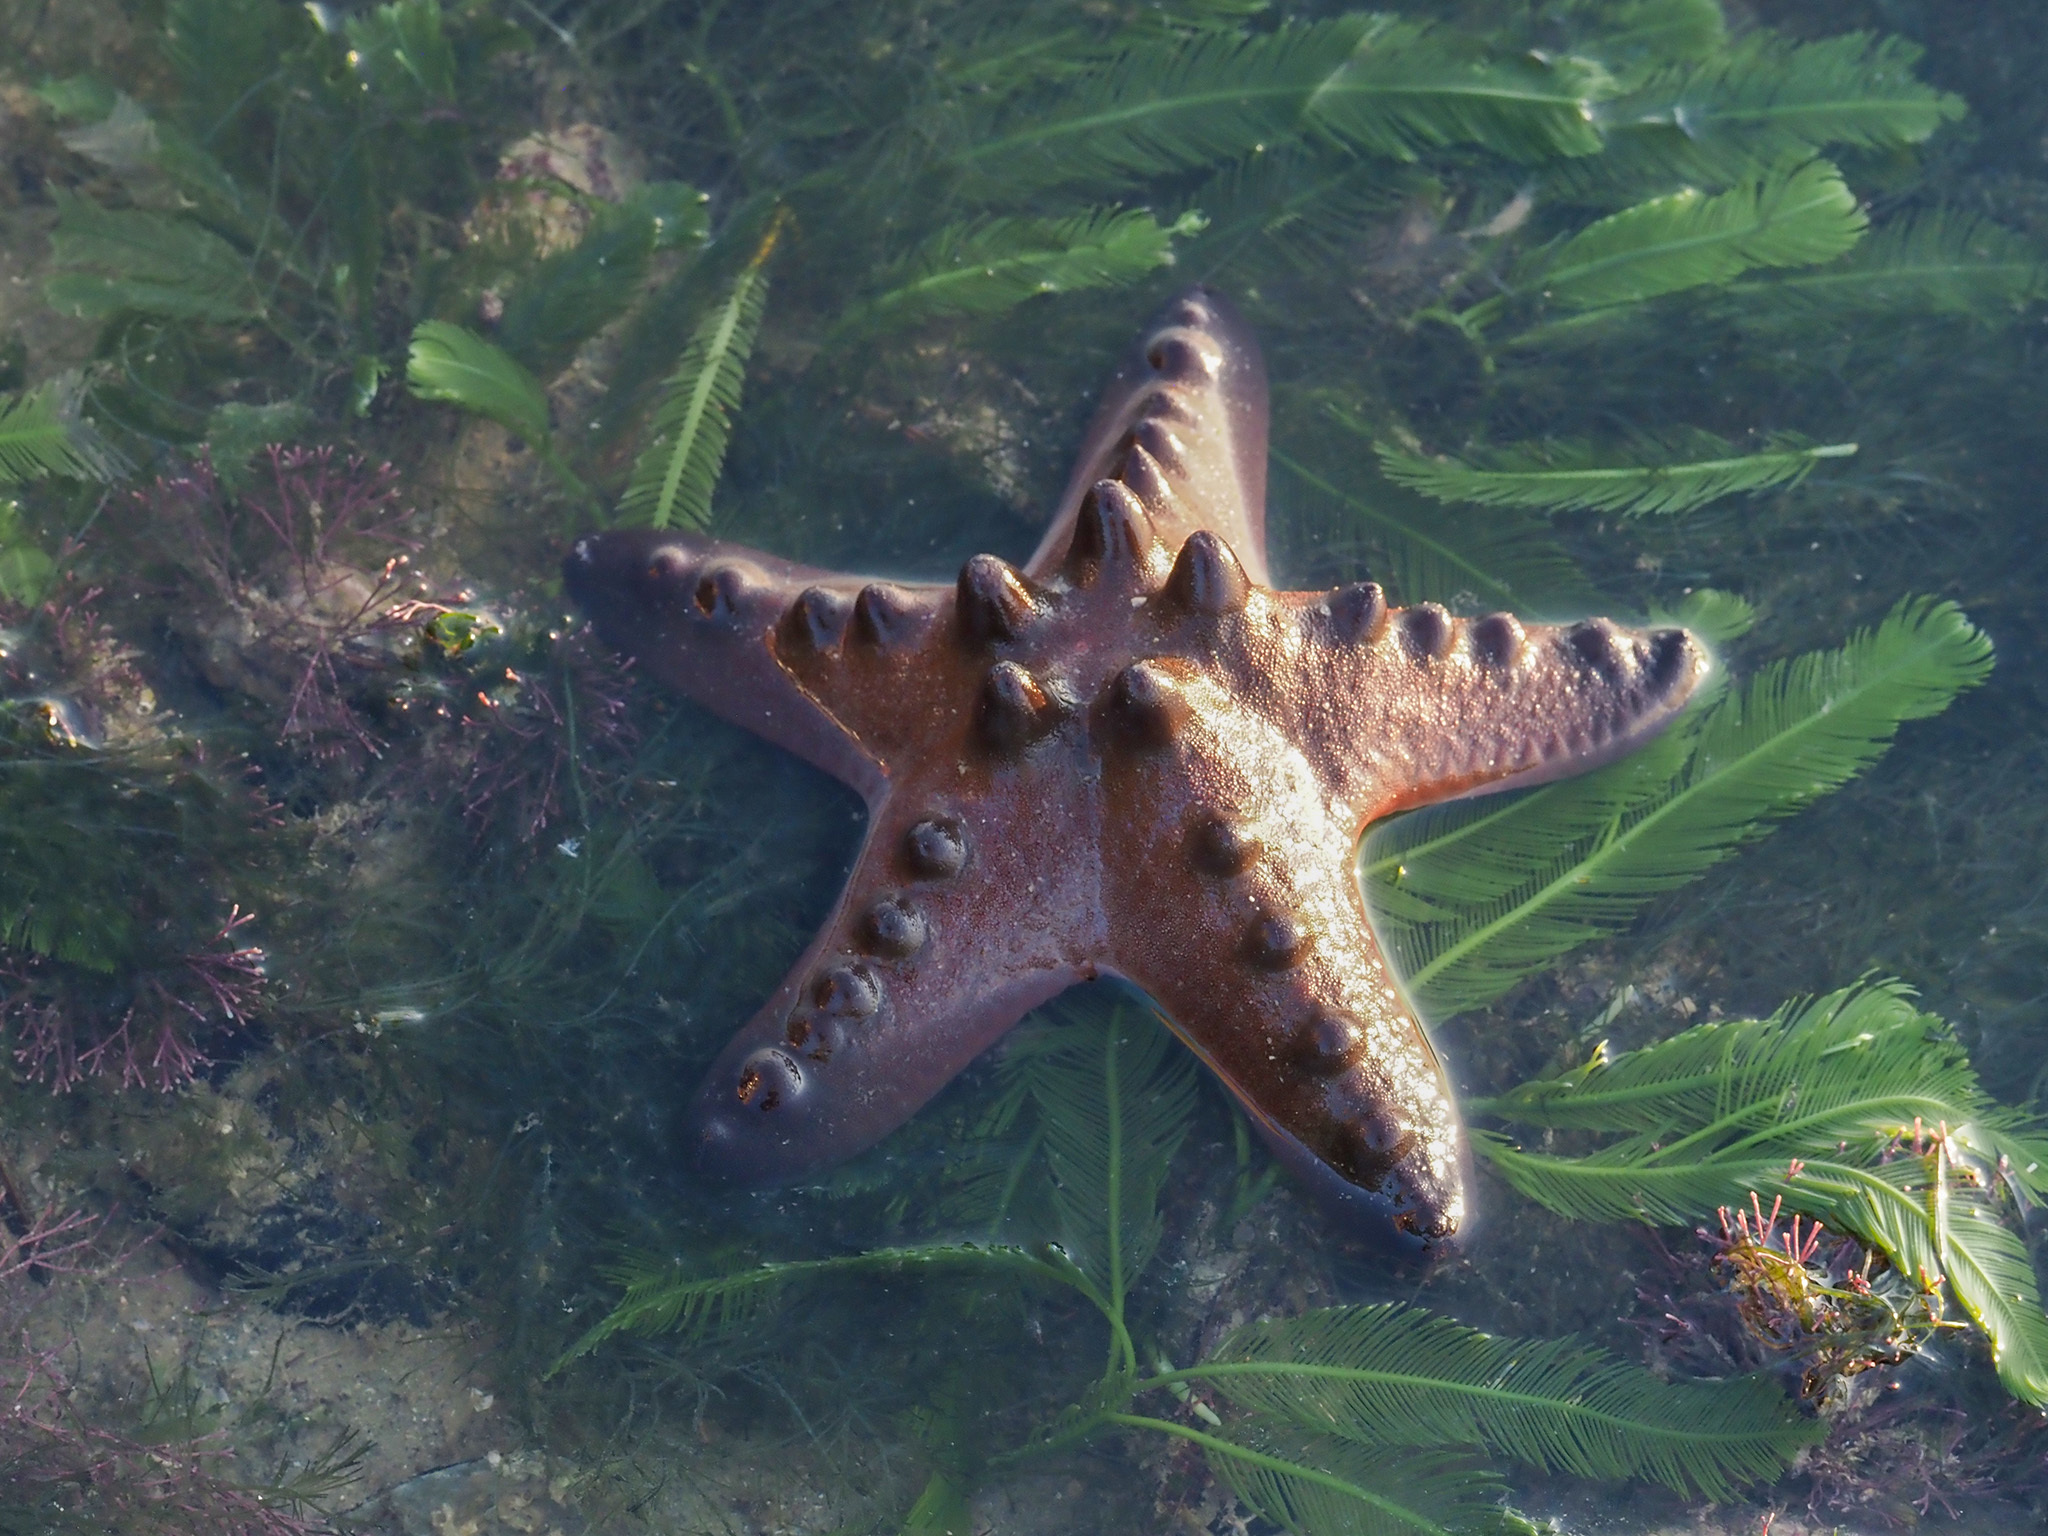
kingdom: Animalia
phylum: Echinodermata
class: Asteroidea
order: Valvatida
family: Oreasteridae
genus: Protoreaster
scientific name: Protoreaster nodosus
